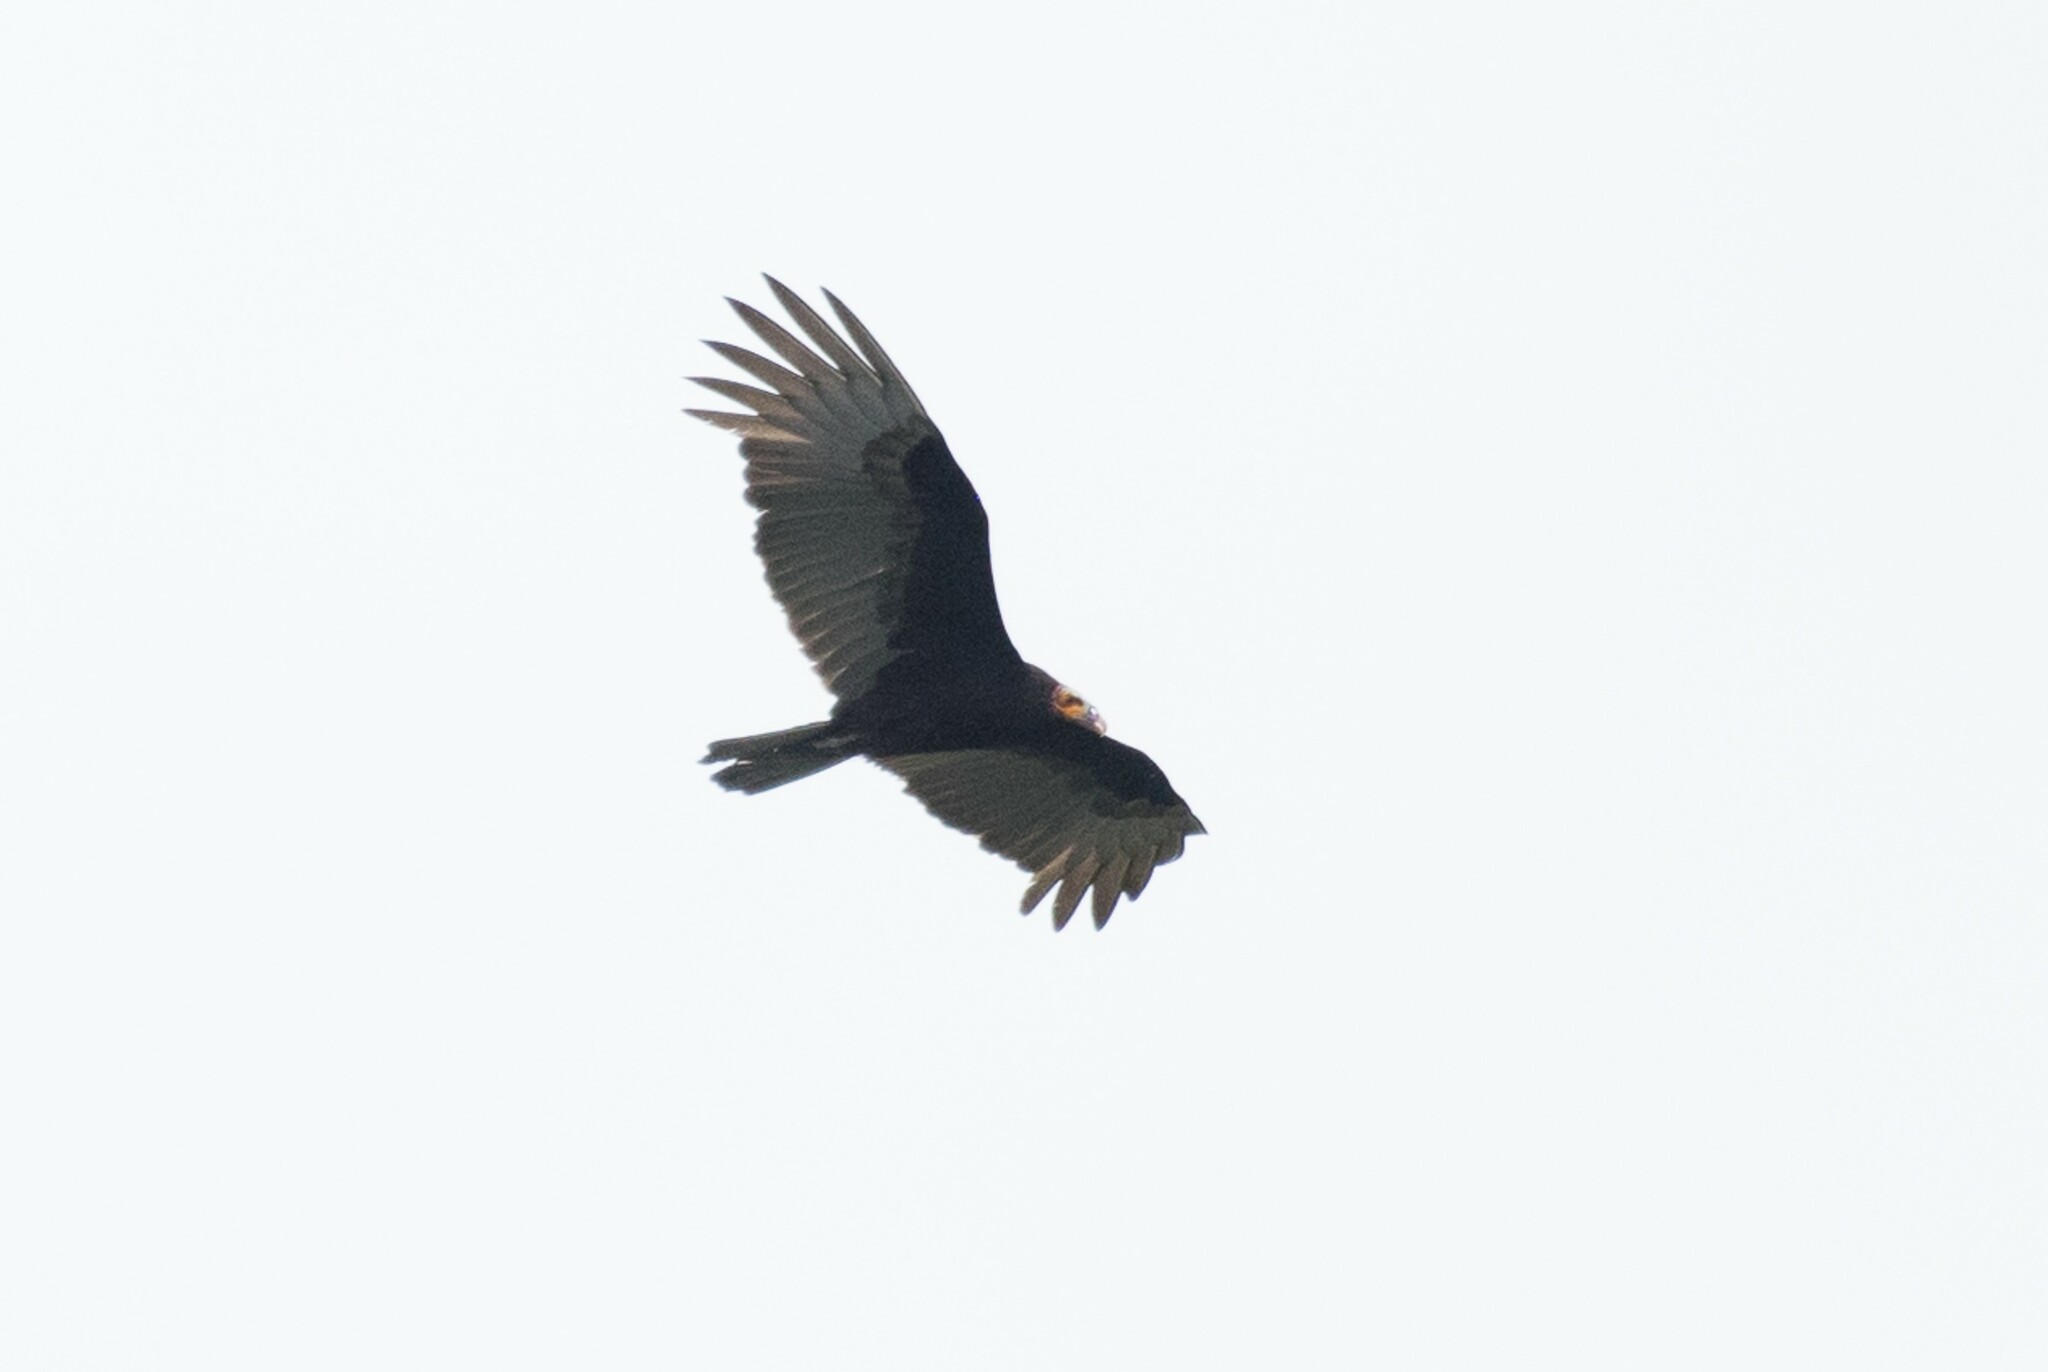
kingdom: Animalia
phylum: Chordata
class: Aves
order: Accipitriformes
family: Cathartidae
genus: Cathartes
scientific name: Cathartes burrovianus
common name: Lesser yellow-headed vulture
